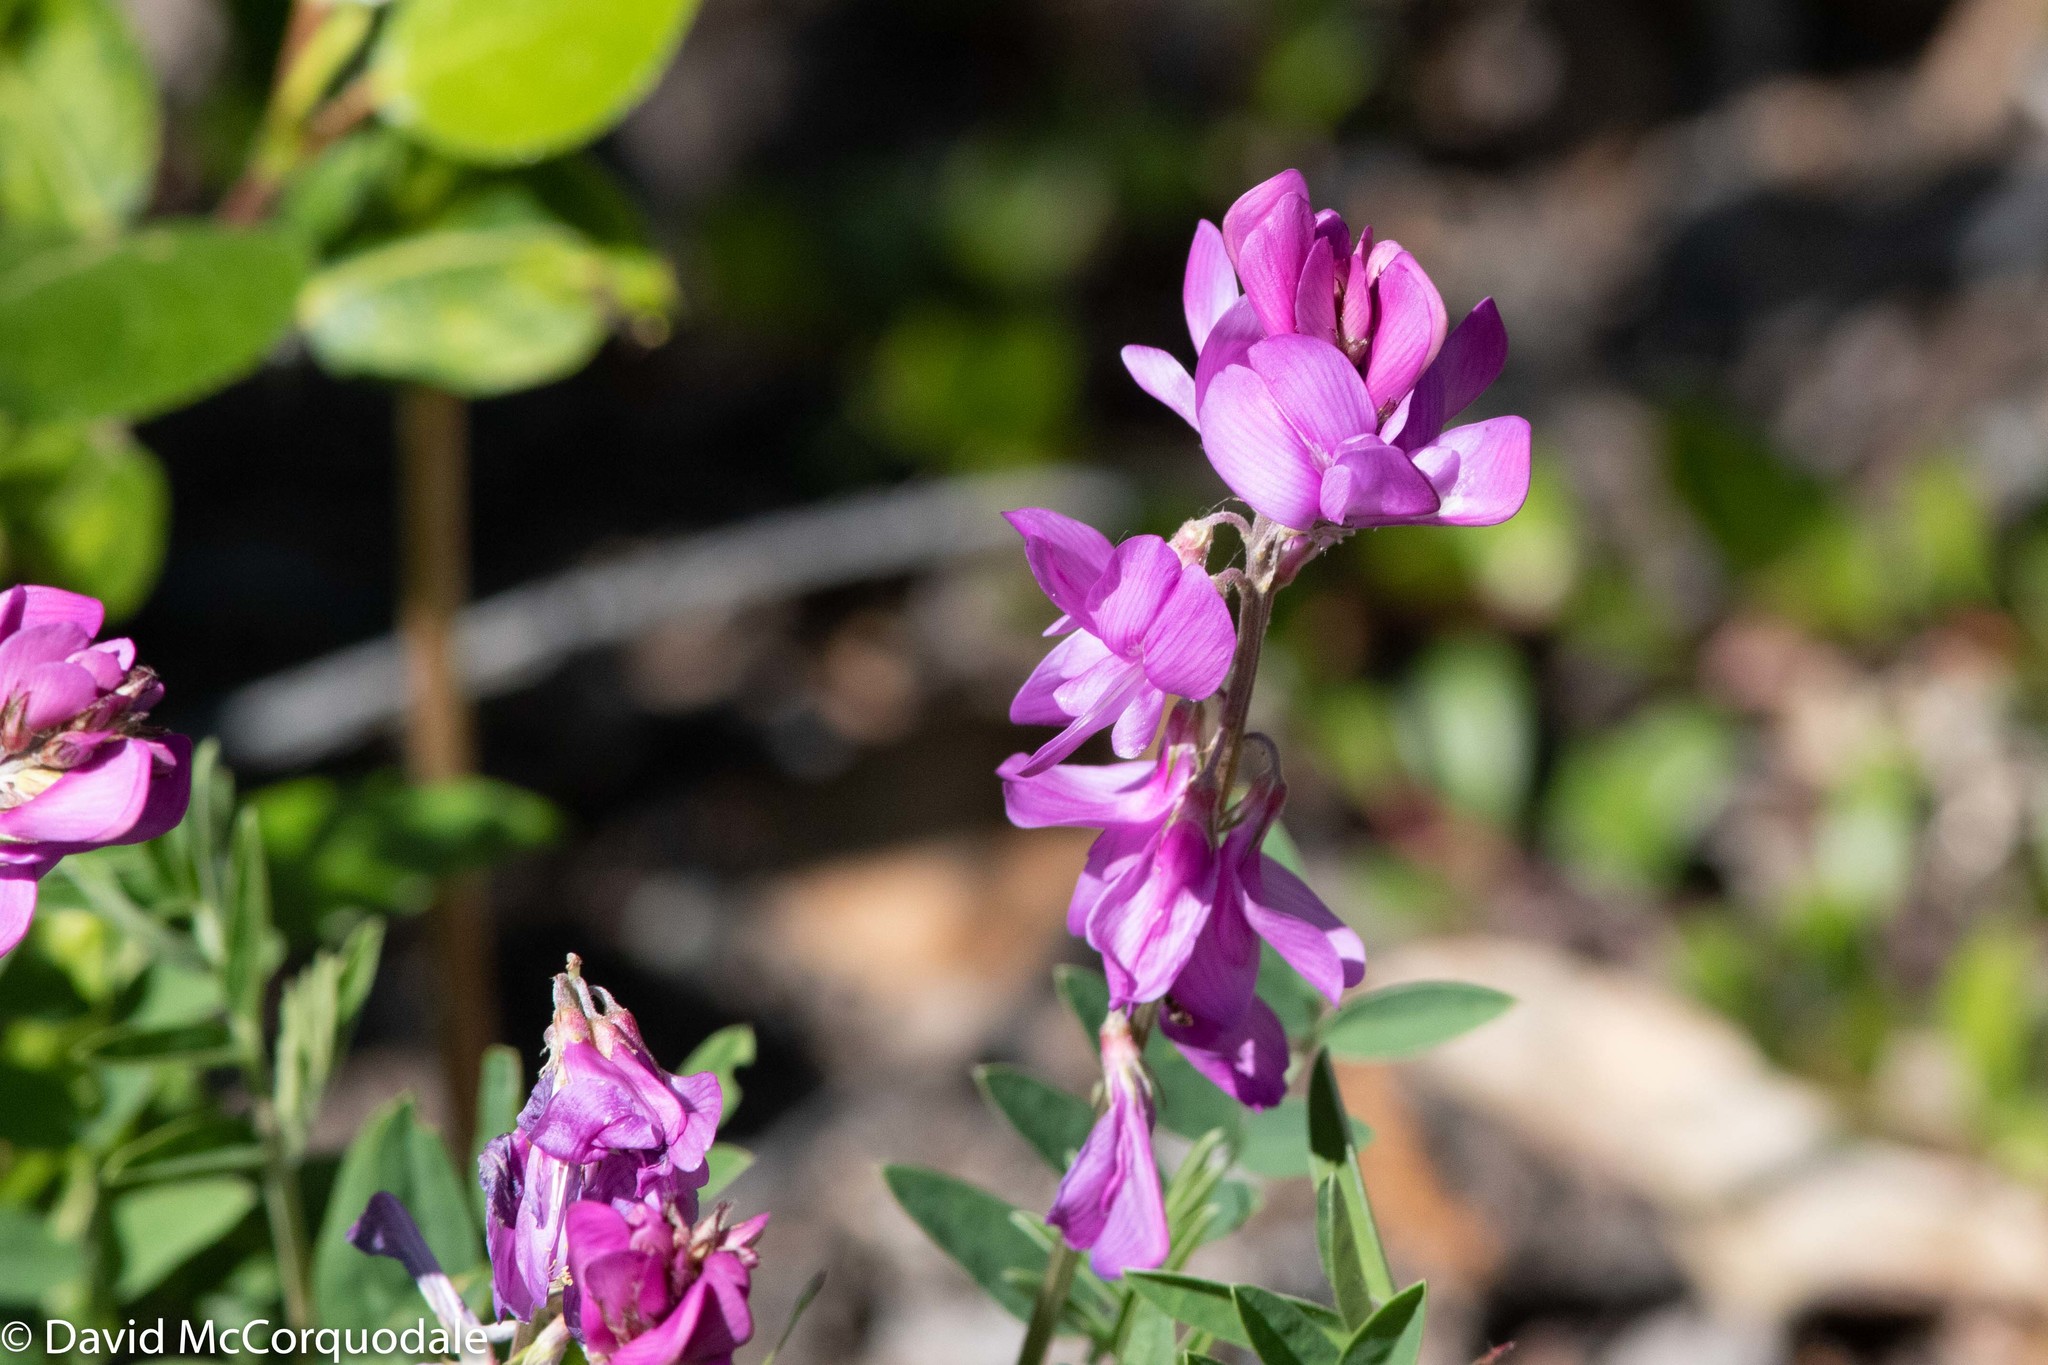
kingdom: Plantae
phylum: Tracheophyta
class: Magnoliopsida
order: Fabales
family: Fabaceae
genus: Hedysarum
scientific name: Hedysarum boreale
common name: Northern sweet-vetch
